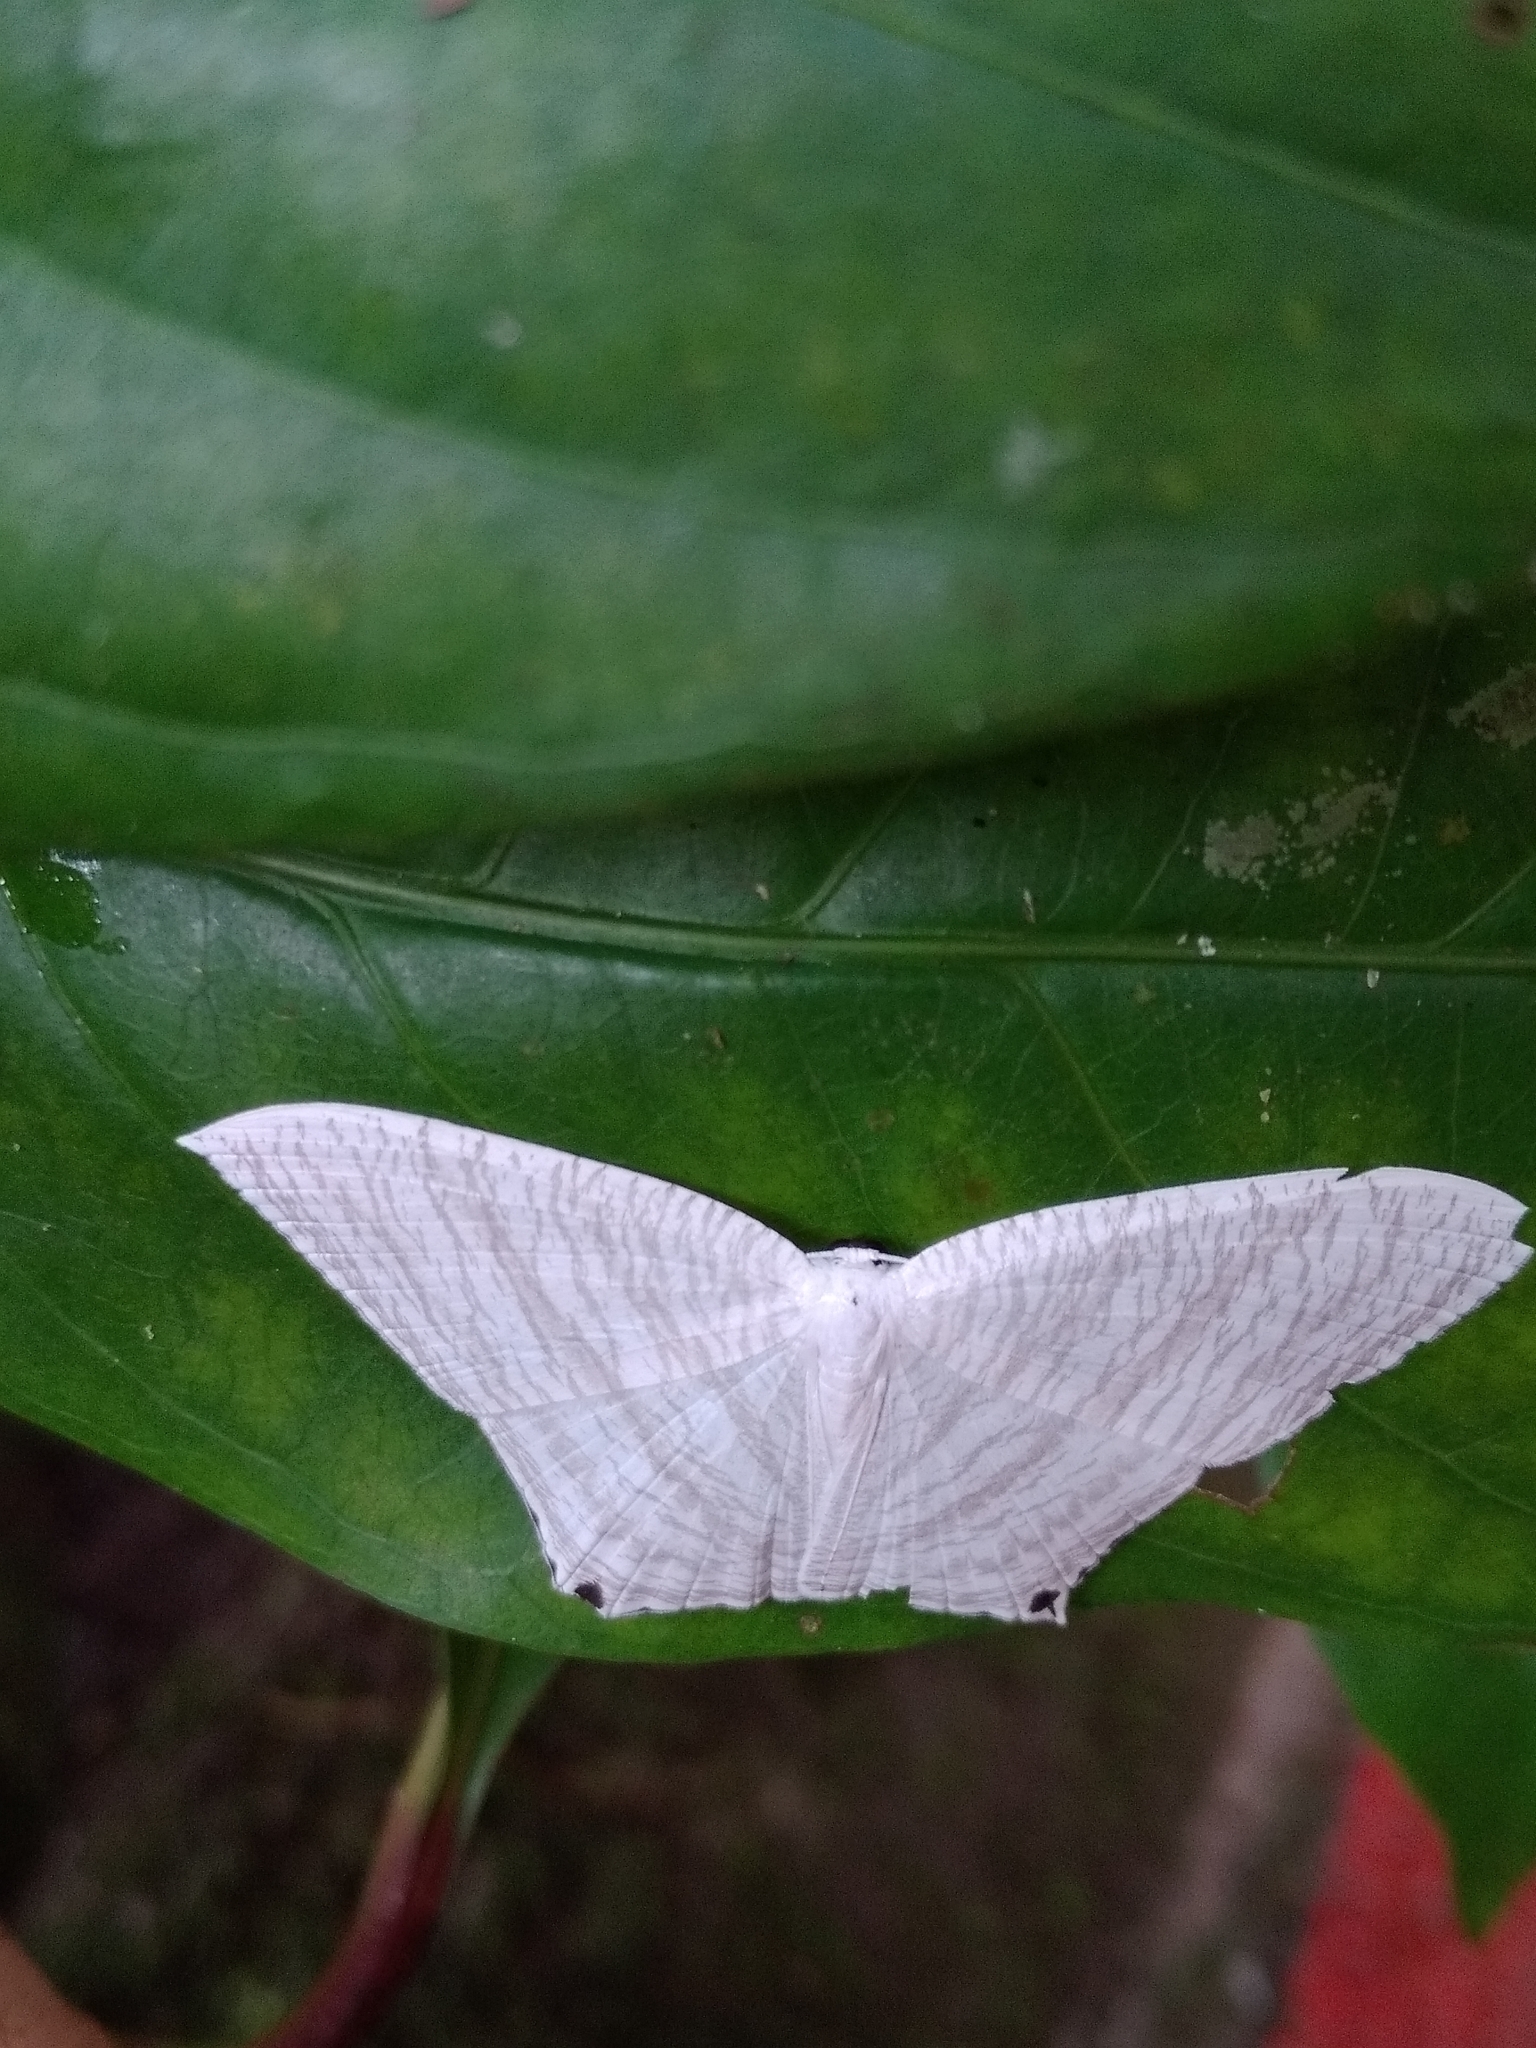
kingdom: Animalia
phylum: Arthropoda
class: Insecta
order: Lepidoptera
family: Uraniidae
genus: Micronia
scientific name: Micronia aculeata
